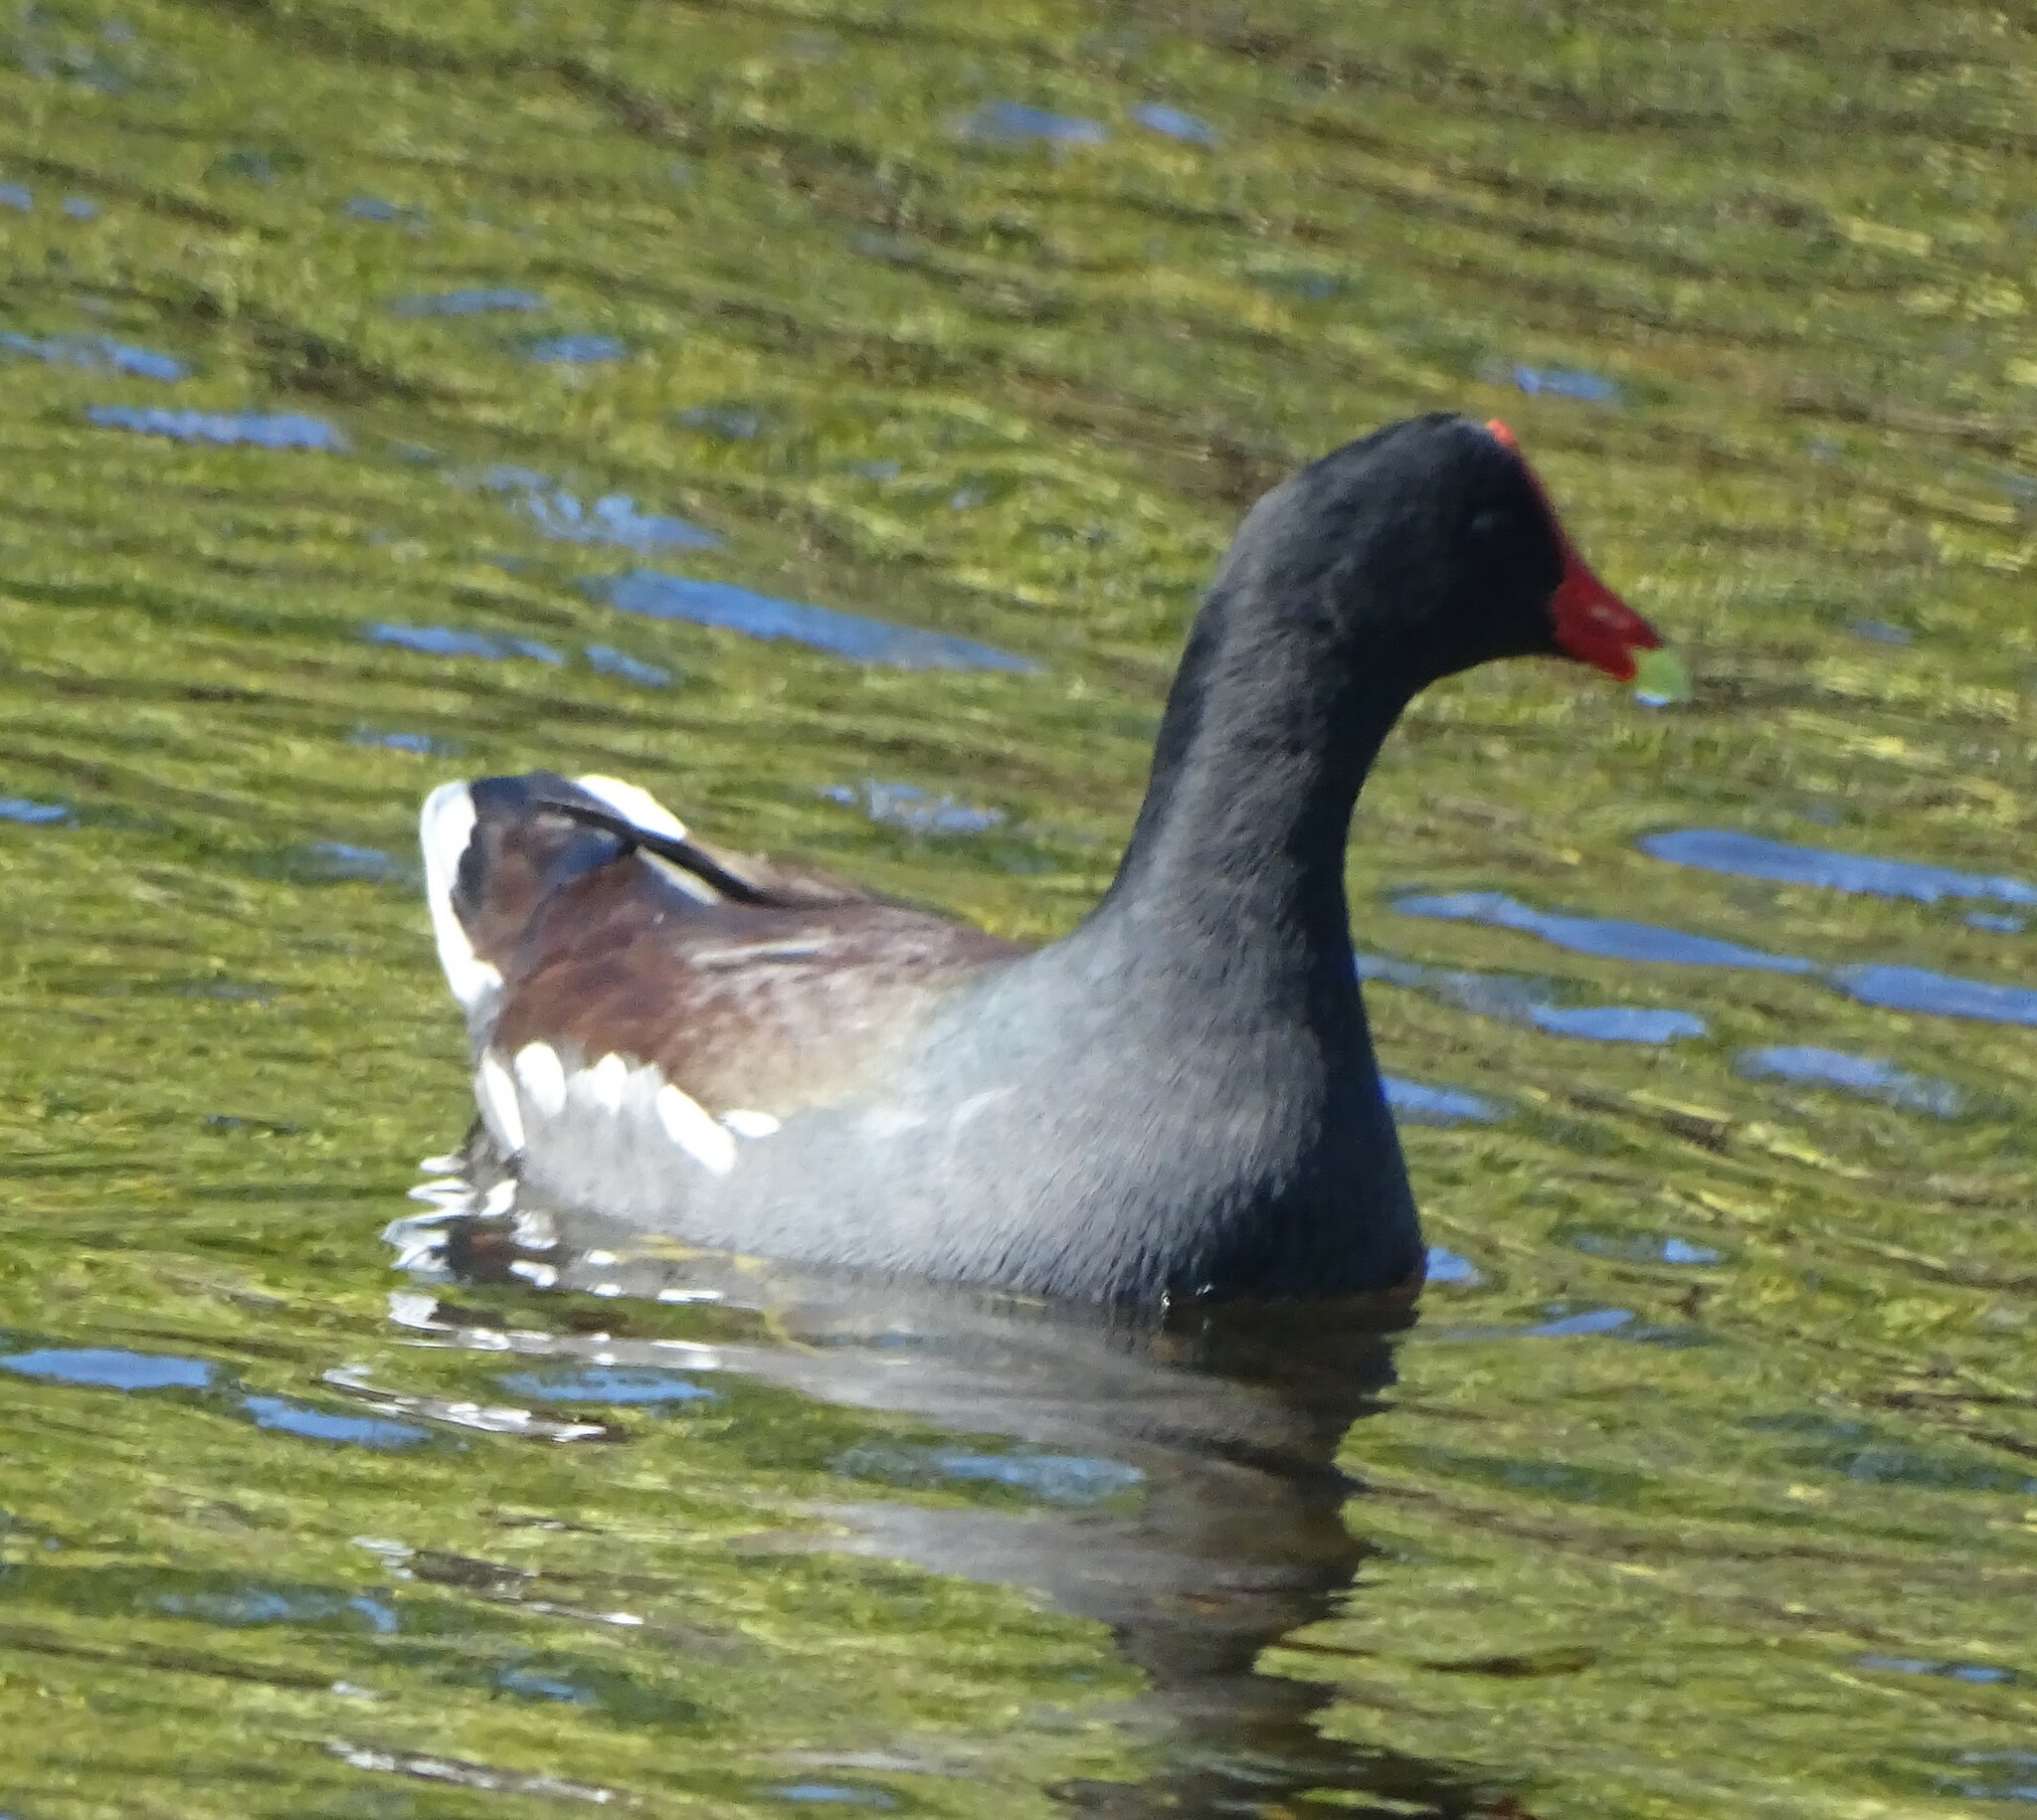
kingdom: Animalia
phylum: Chordata
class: Aves
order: Gruiformes
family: Rallidae
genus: Gallinula
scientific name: Gallinula chloropus
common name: Common moorhen
